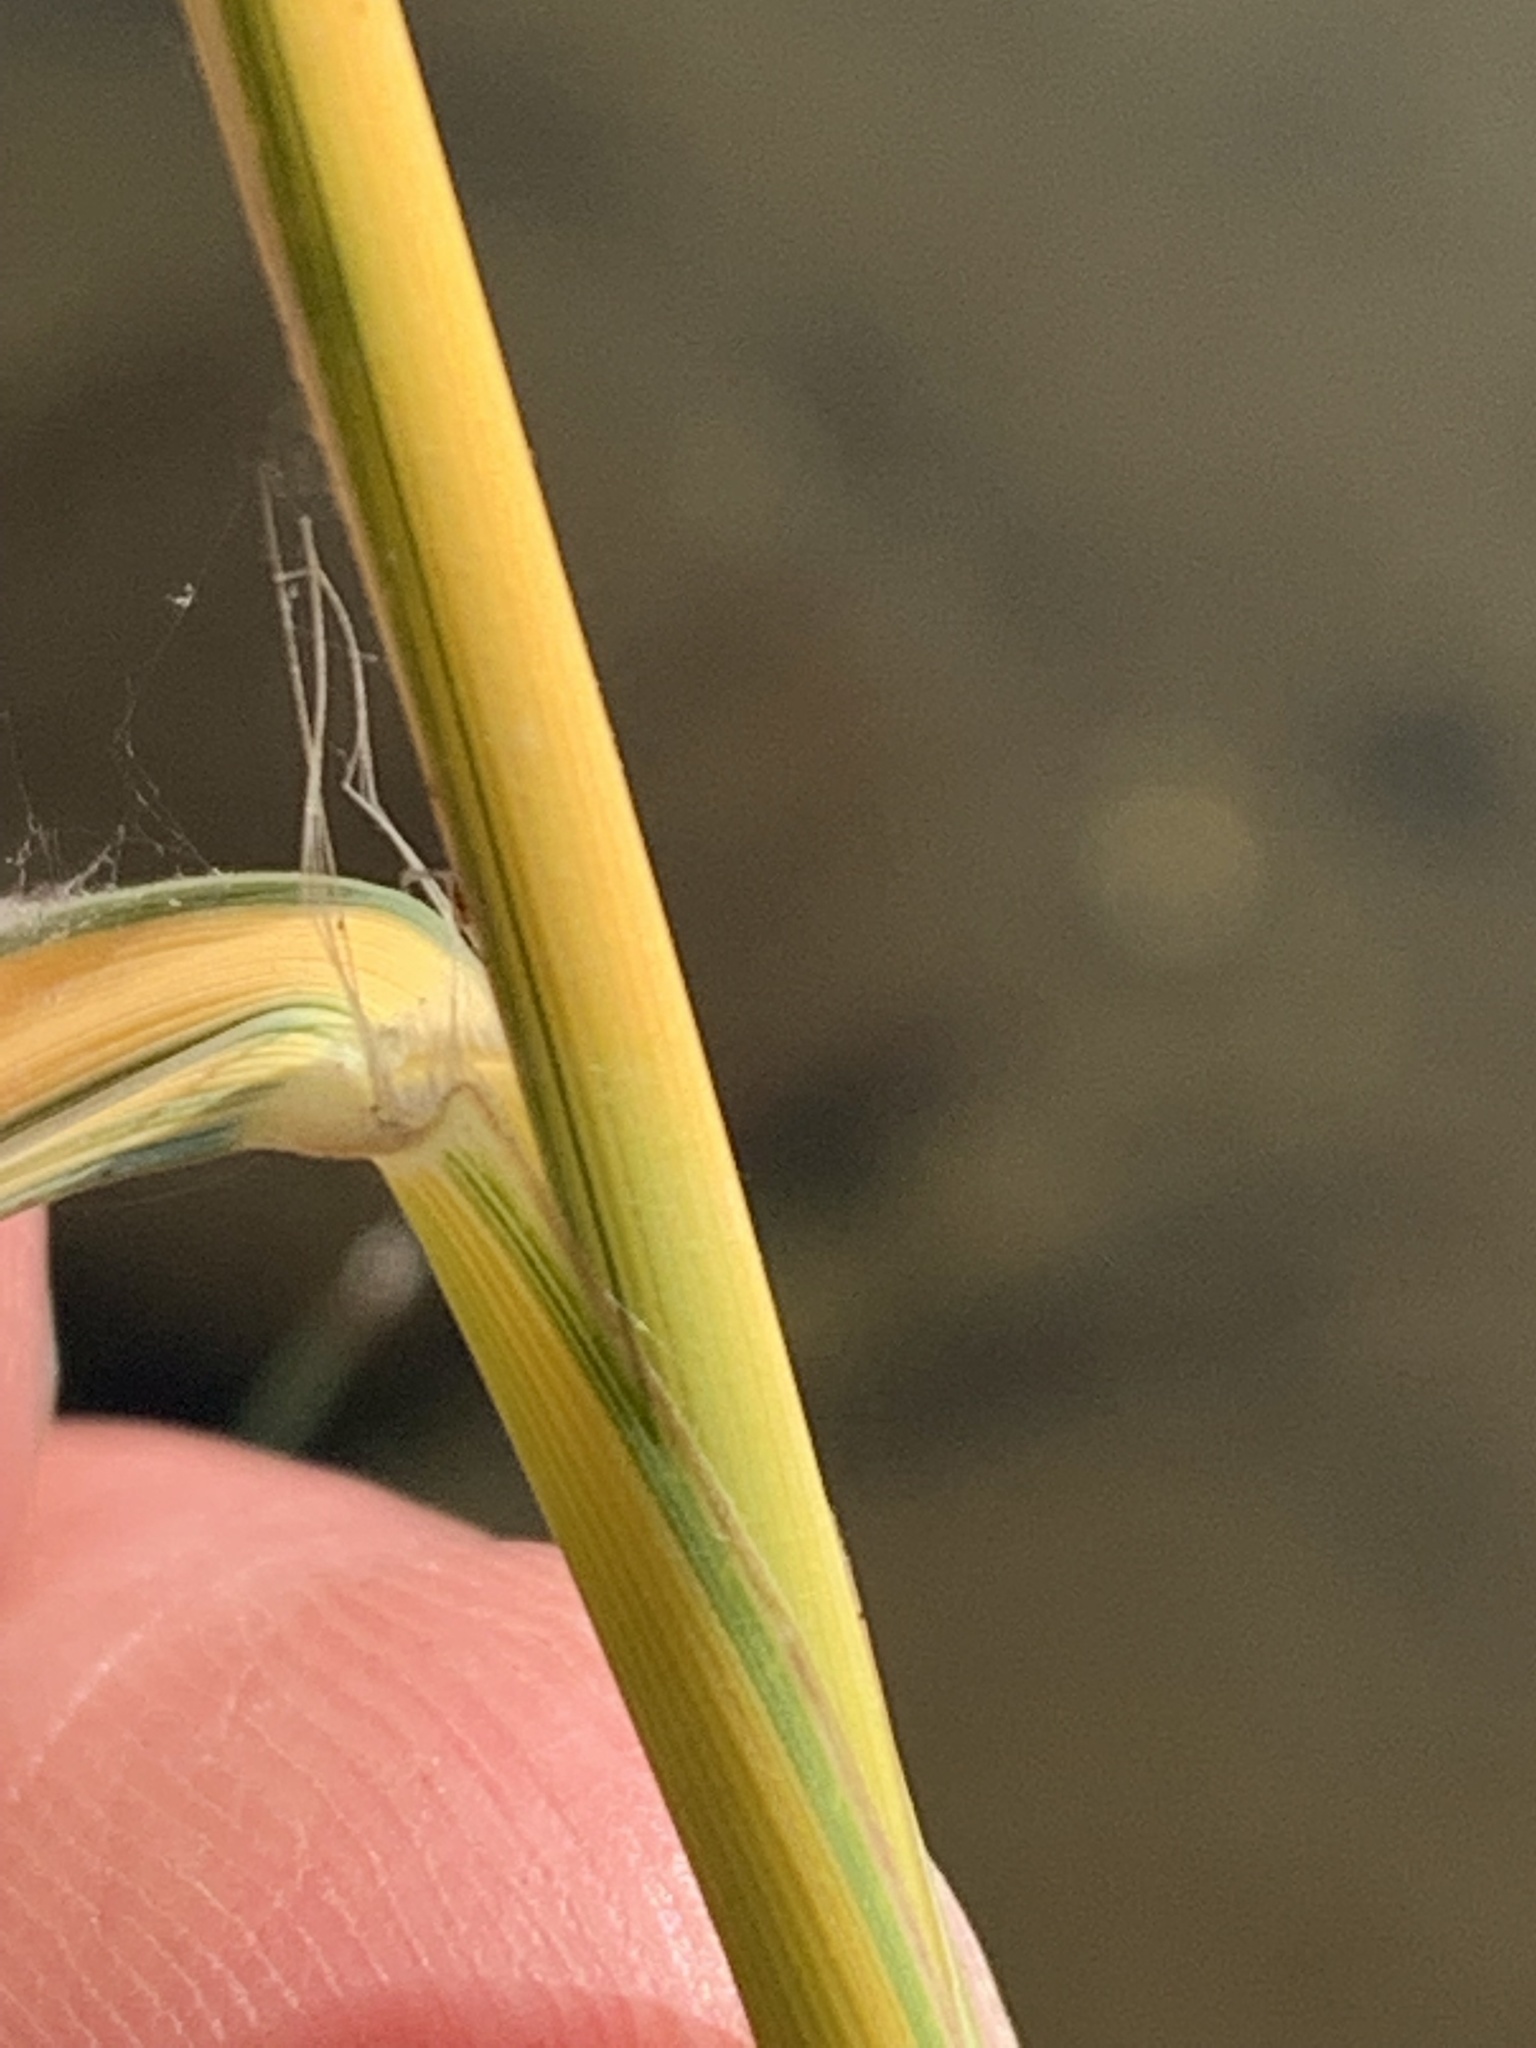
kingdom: Plantae
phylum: Tracheophyta
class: Liliopsida
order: Poales
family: Poaceae
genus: Phragmites
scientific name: Phragmites australis
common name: Common reed
